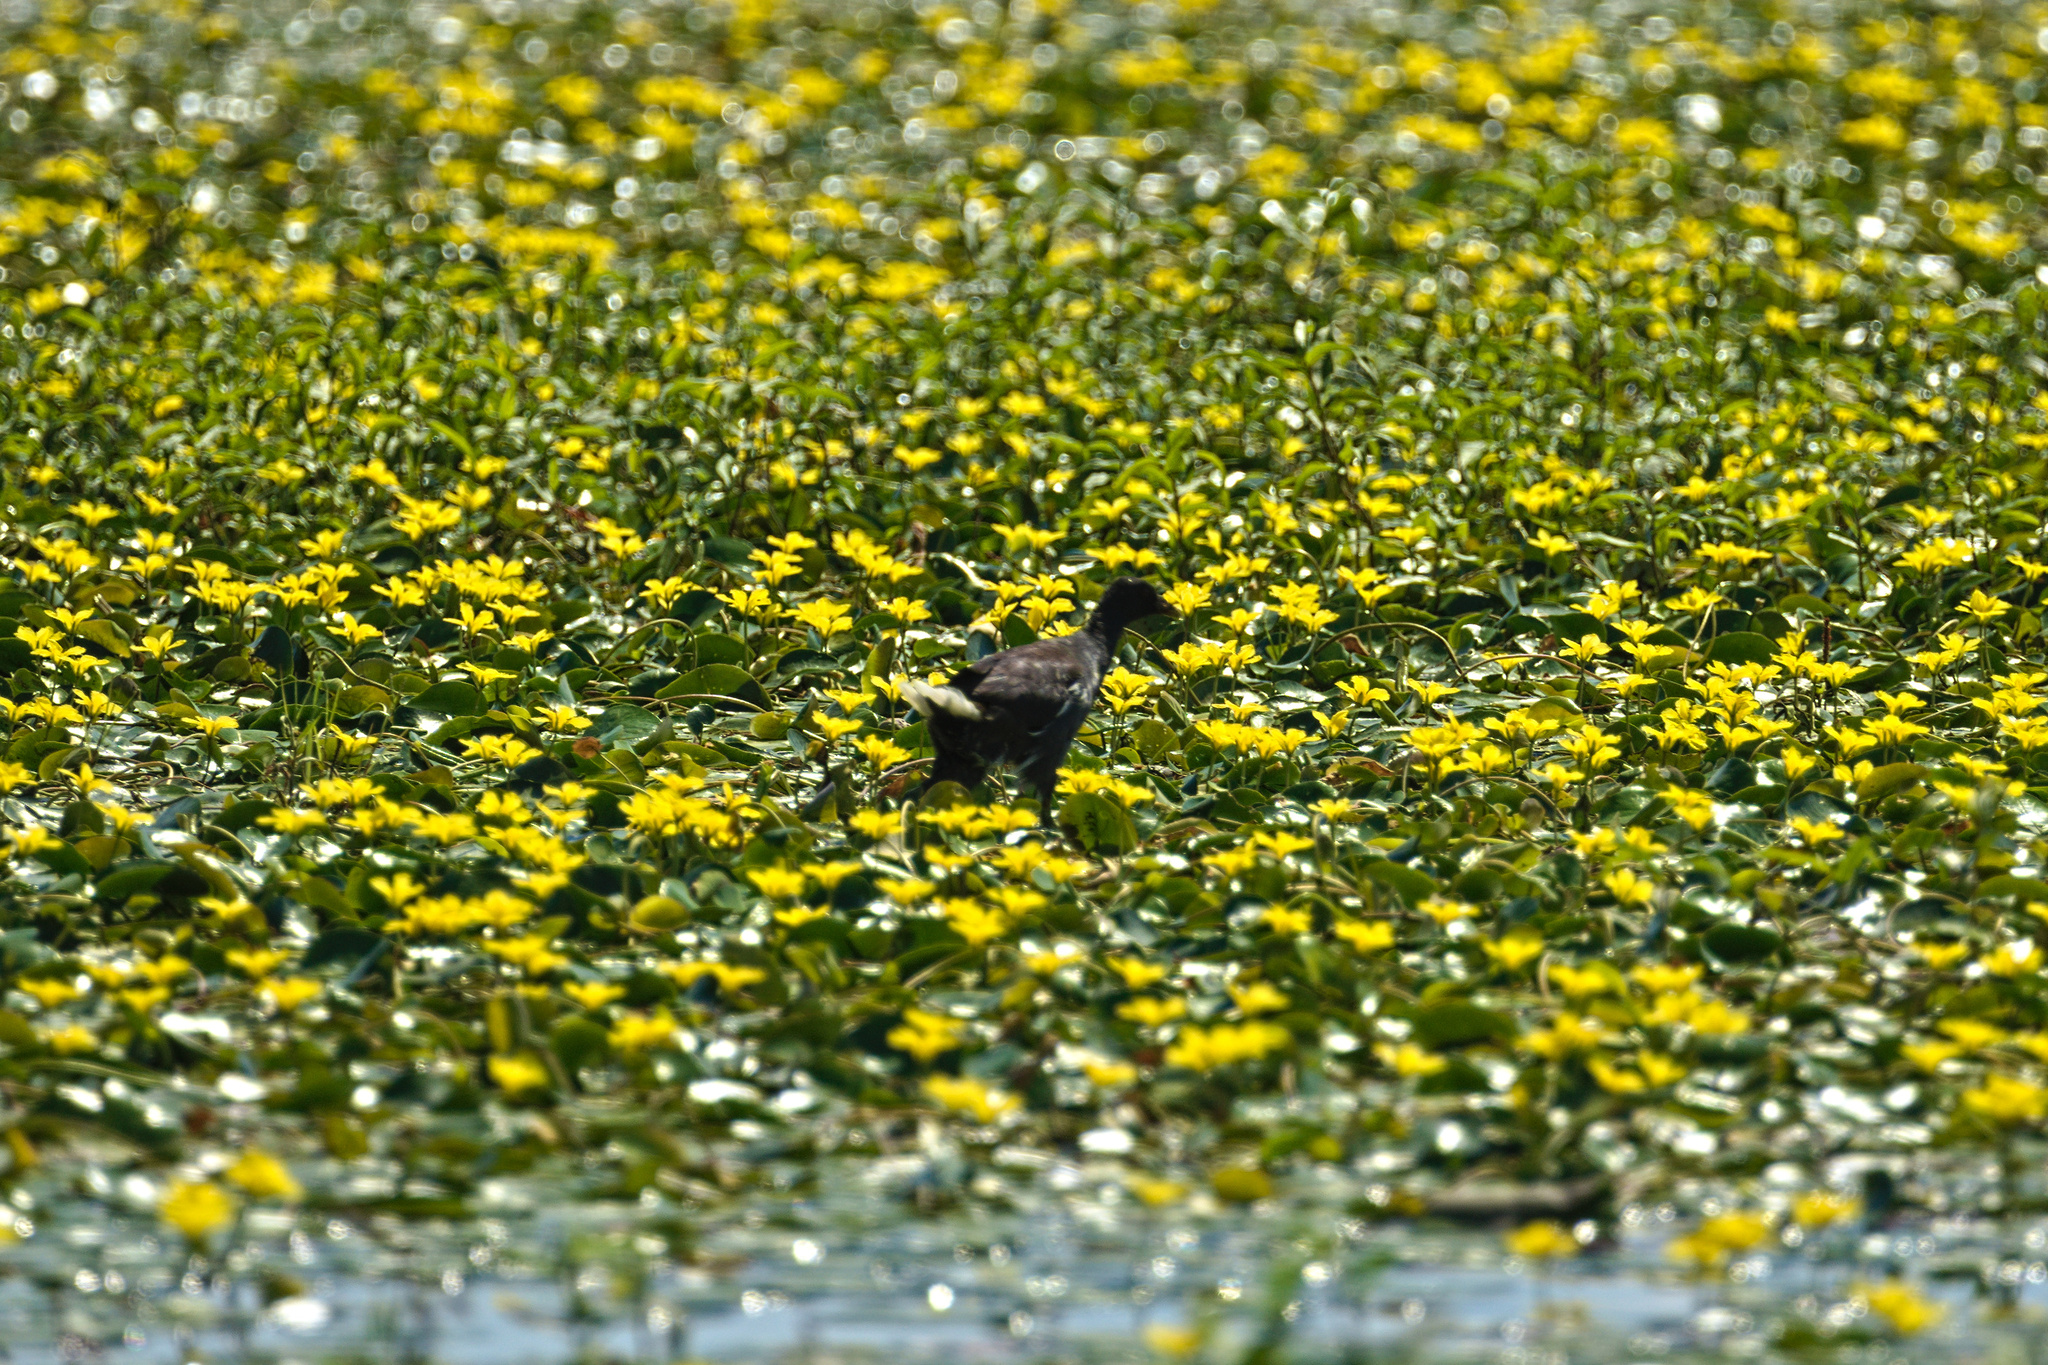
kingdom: Animalia
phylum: Chordata
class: Aves
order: Gruiformes
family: Rallidae
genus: Gallinula
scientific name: Gallinula chloropus
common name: Common moorhen
